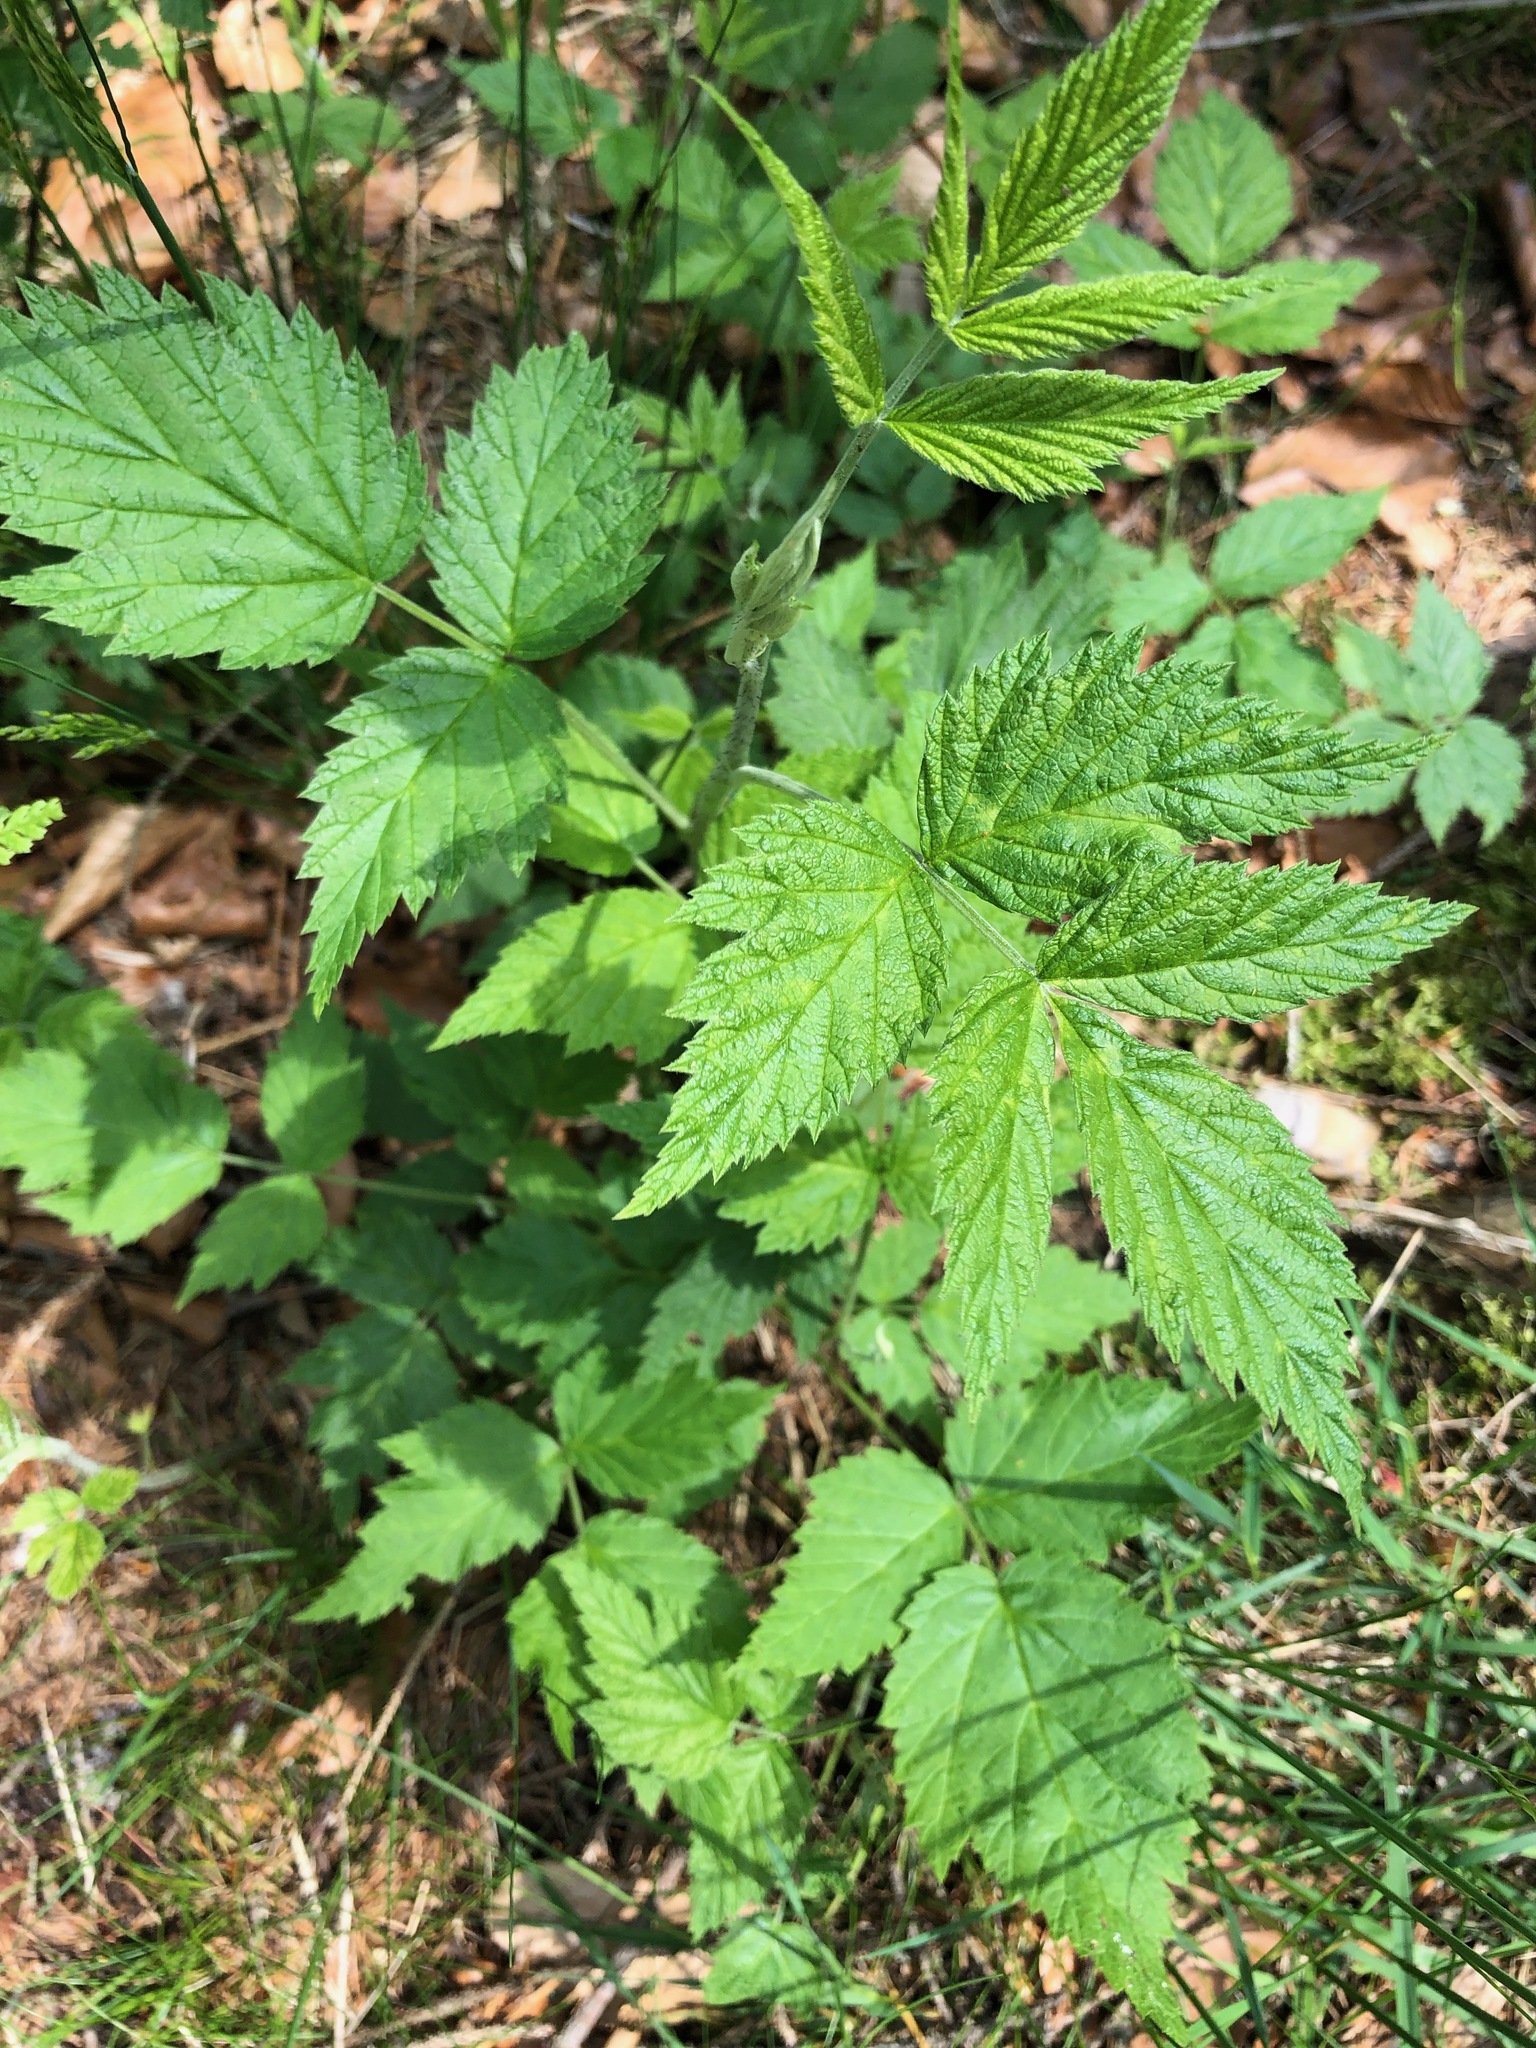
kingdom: Plantae
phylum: Tracheophyta
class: Magnoliopsida
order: Rosales
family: Rosaceae
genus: Rubus
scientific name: Rubus idaeus
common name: Raspberry
